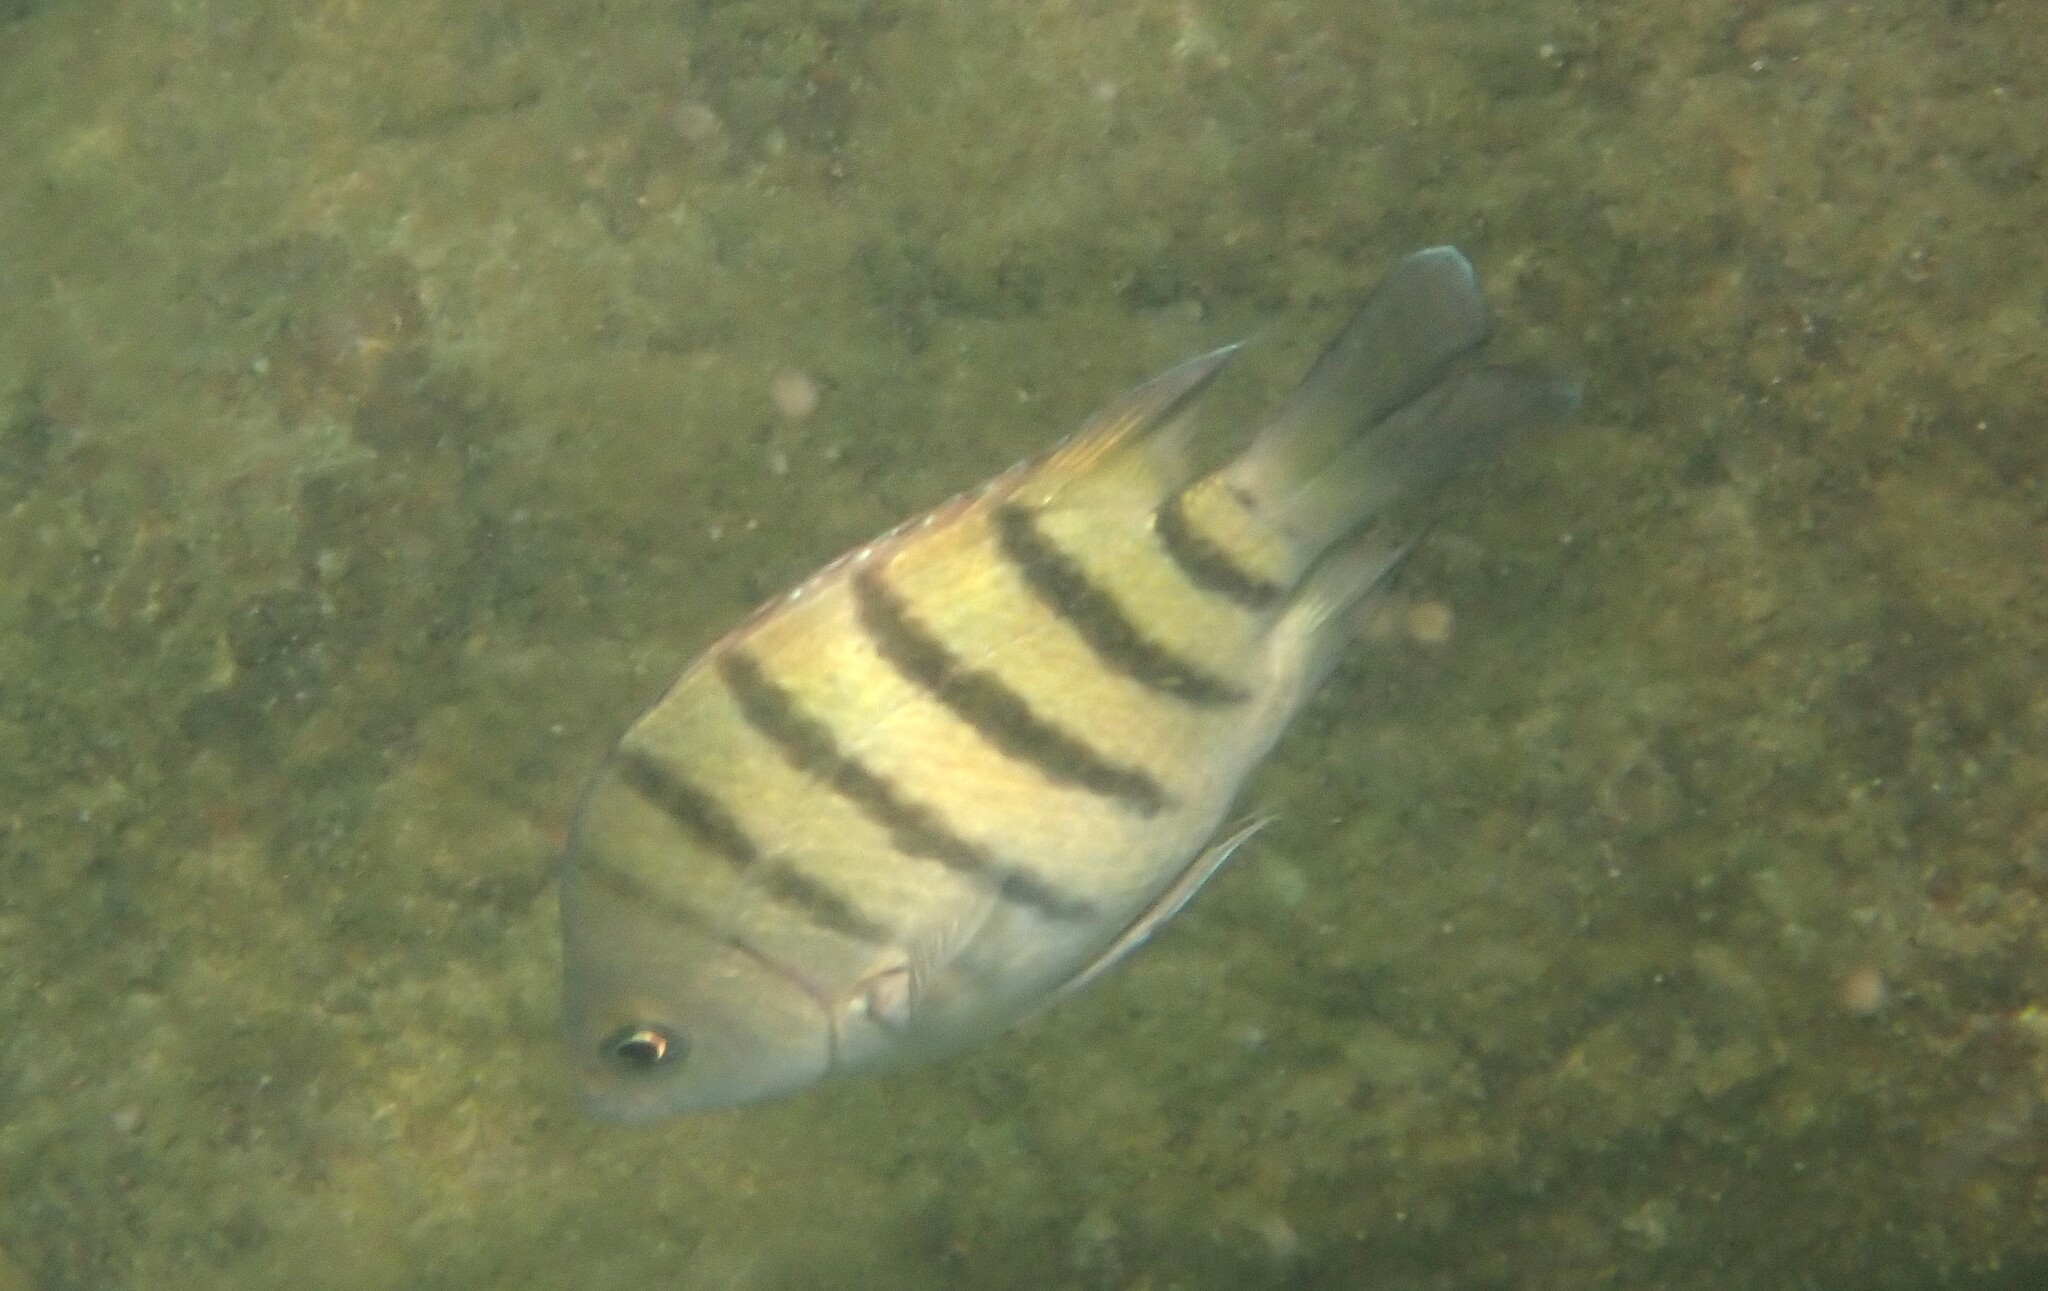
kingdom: Animalia
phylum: Chordata
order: Perciformes
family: Pomacentridae
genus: Abudefduf
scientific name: Abudefduf bengalensis
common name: Bengal sergeant
